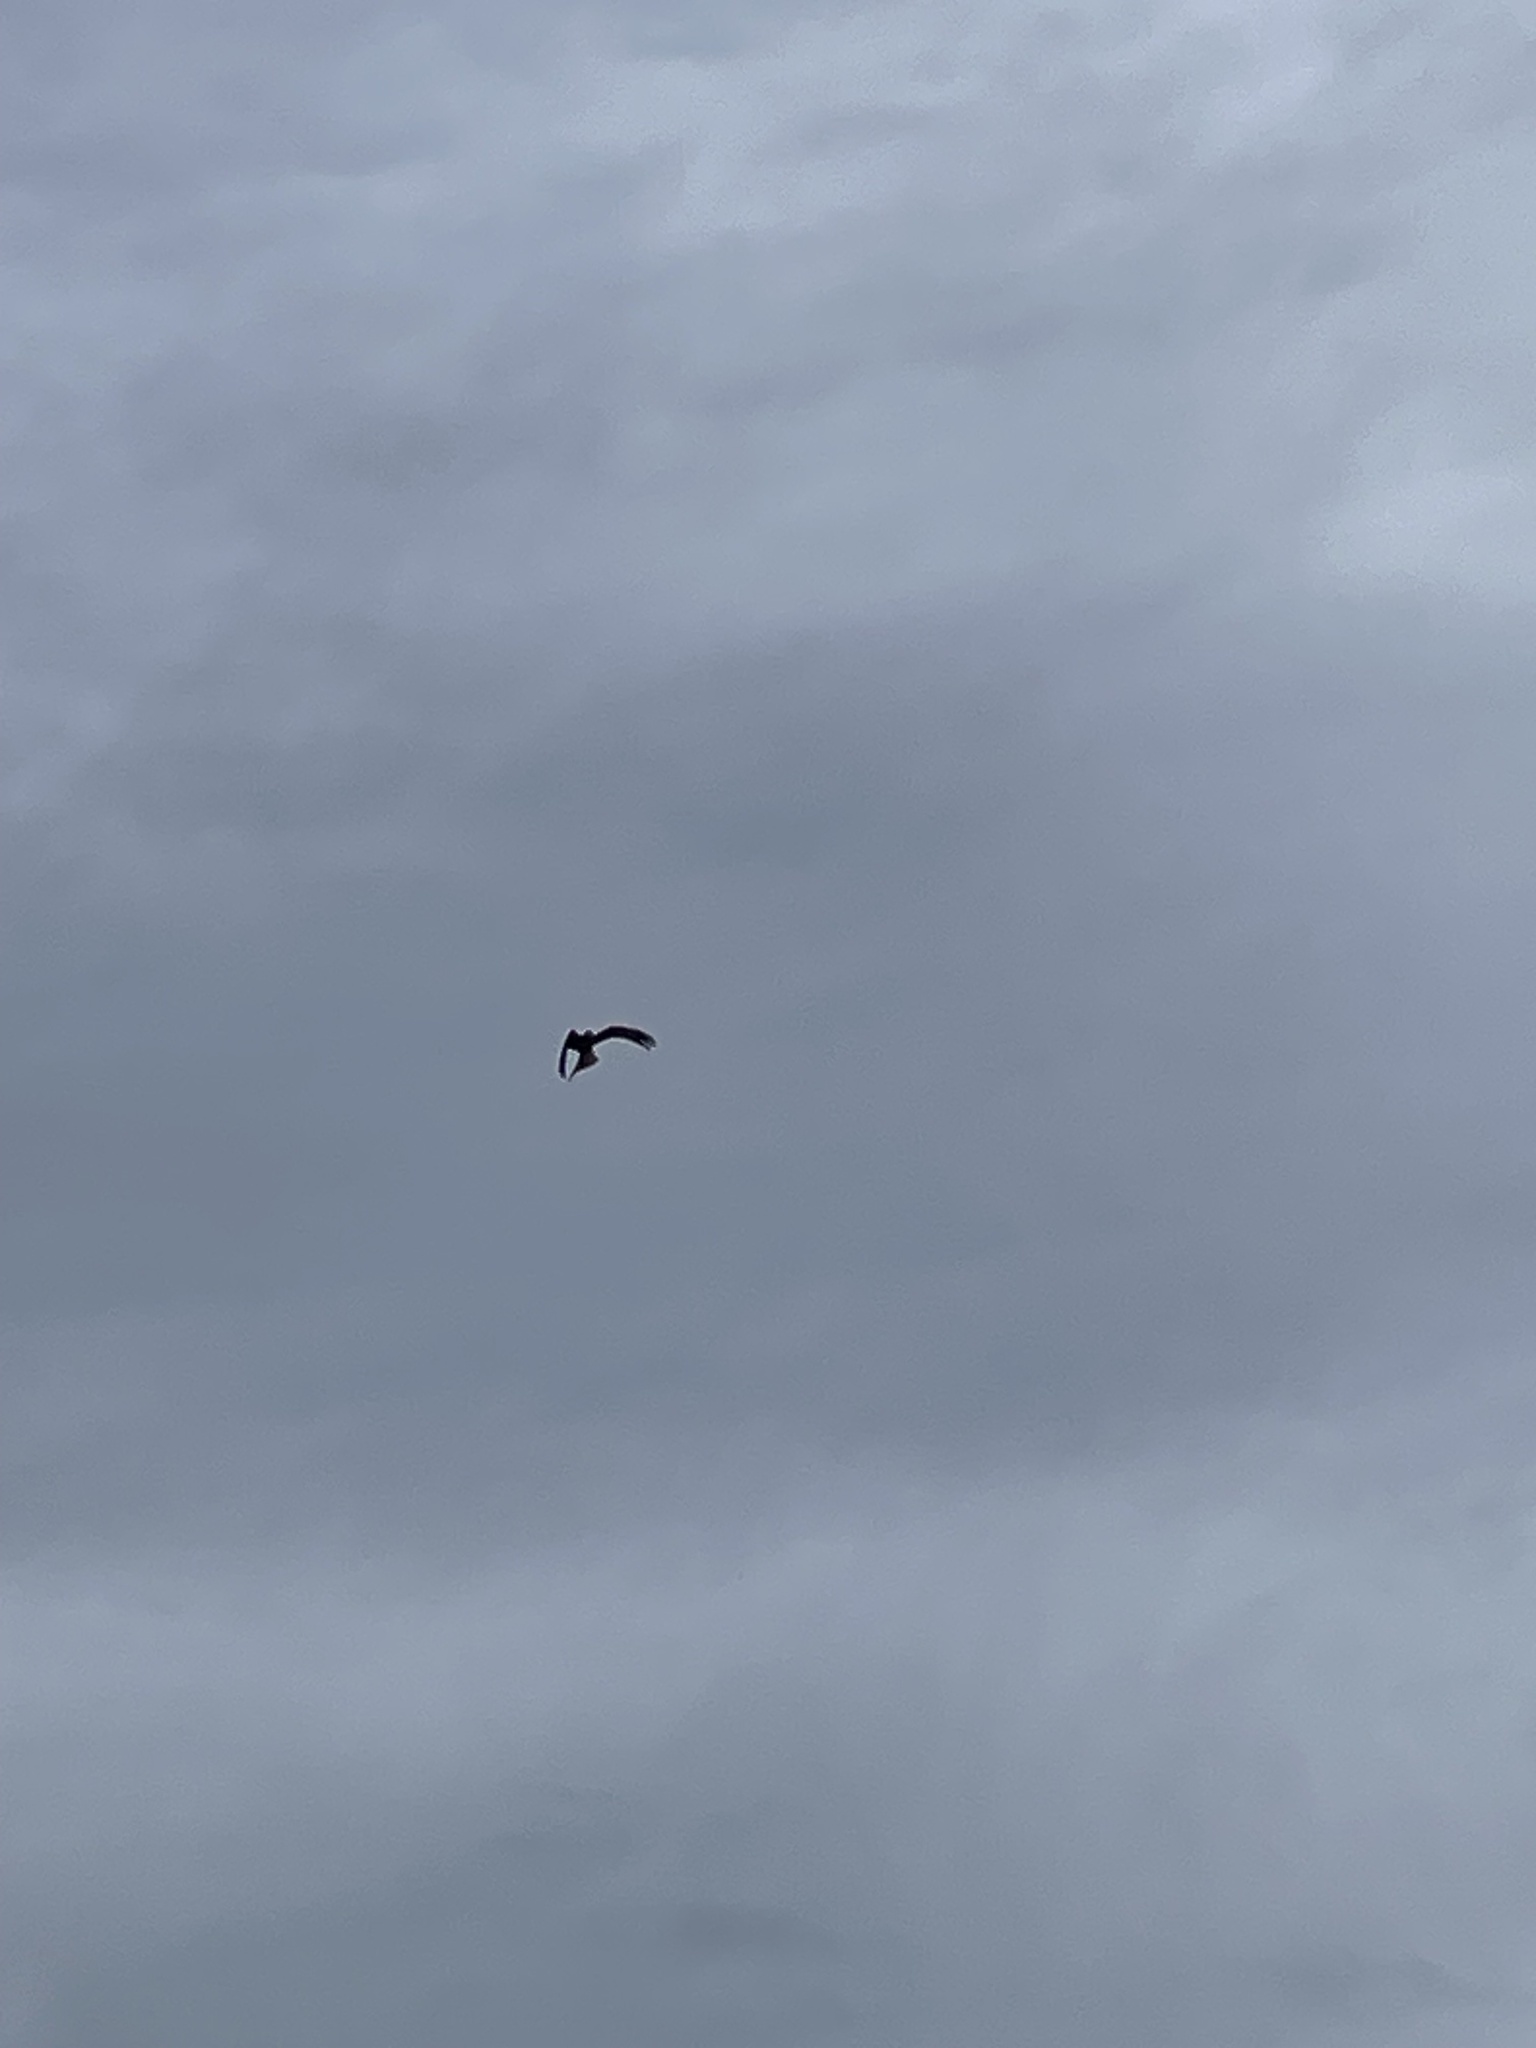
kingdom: Animalia
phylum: Chordata
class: Aves
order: Accipitriformes
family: Accipitridae
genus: Milvus
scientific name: Milvus milvus
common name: Red kite
